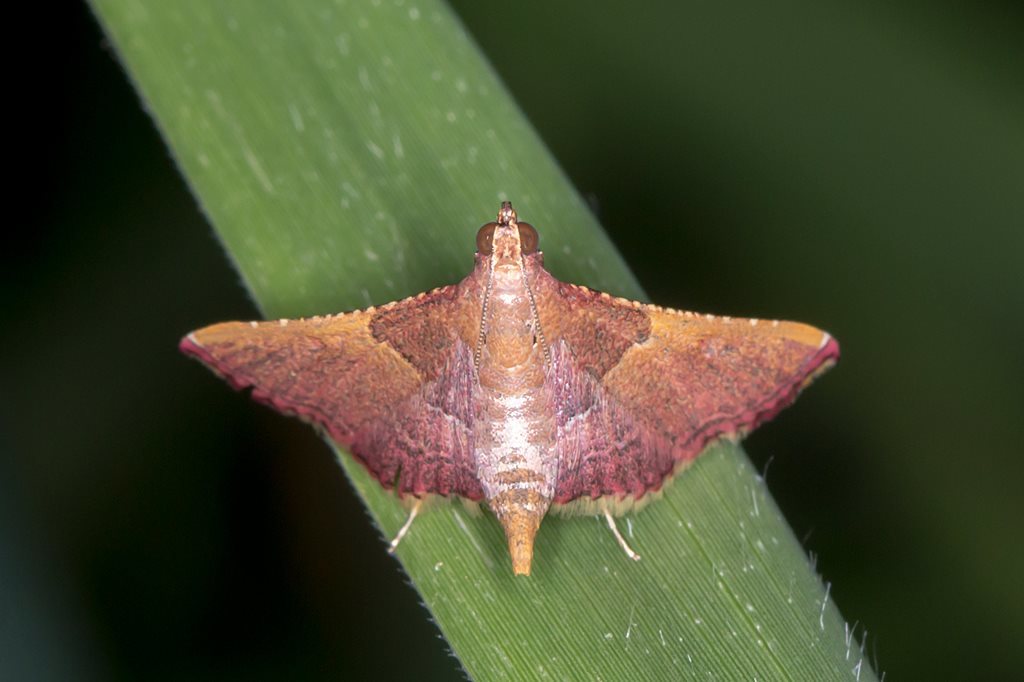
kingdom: Animalia
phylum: Arthropoda
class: Insecta
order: Lepidoptera
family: Pyralidae
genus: Endotricha
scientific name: Endotricha mesenterialis
